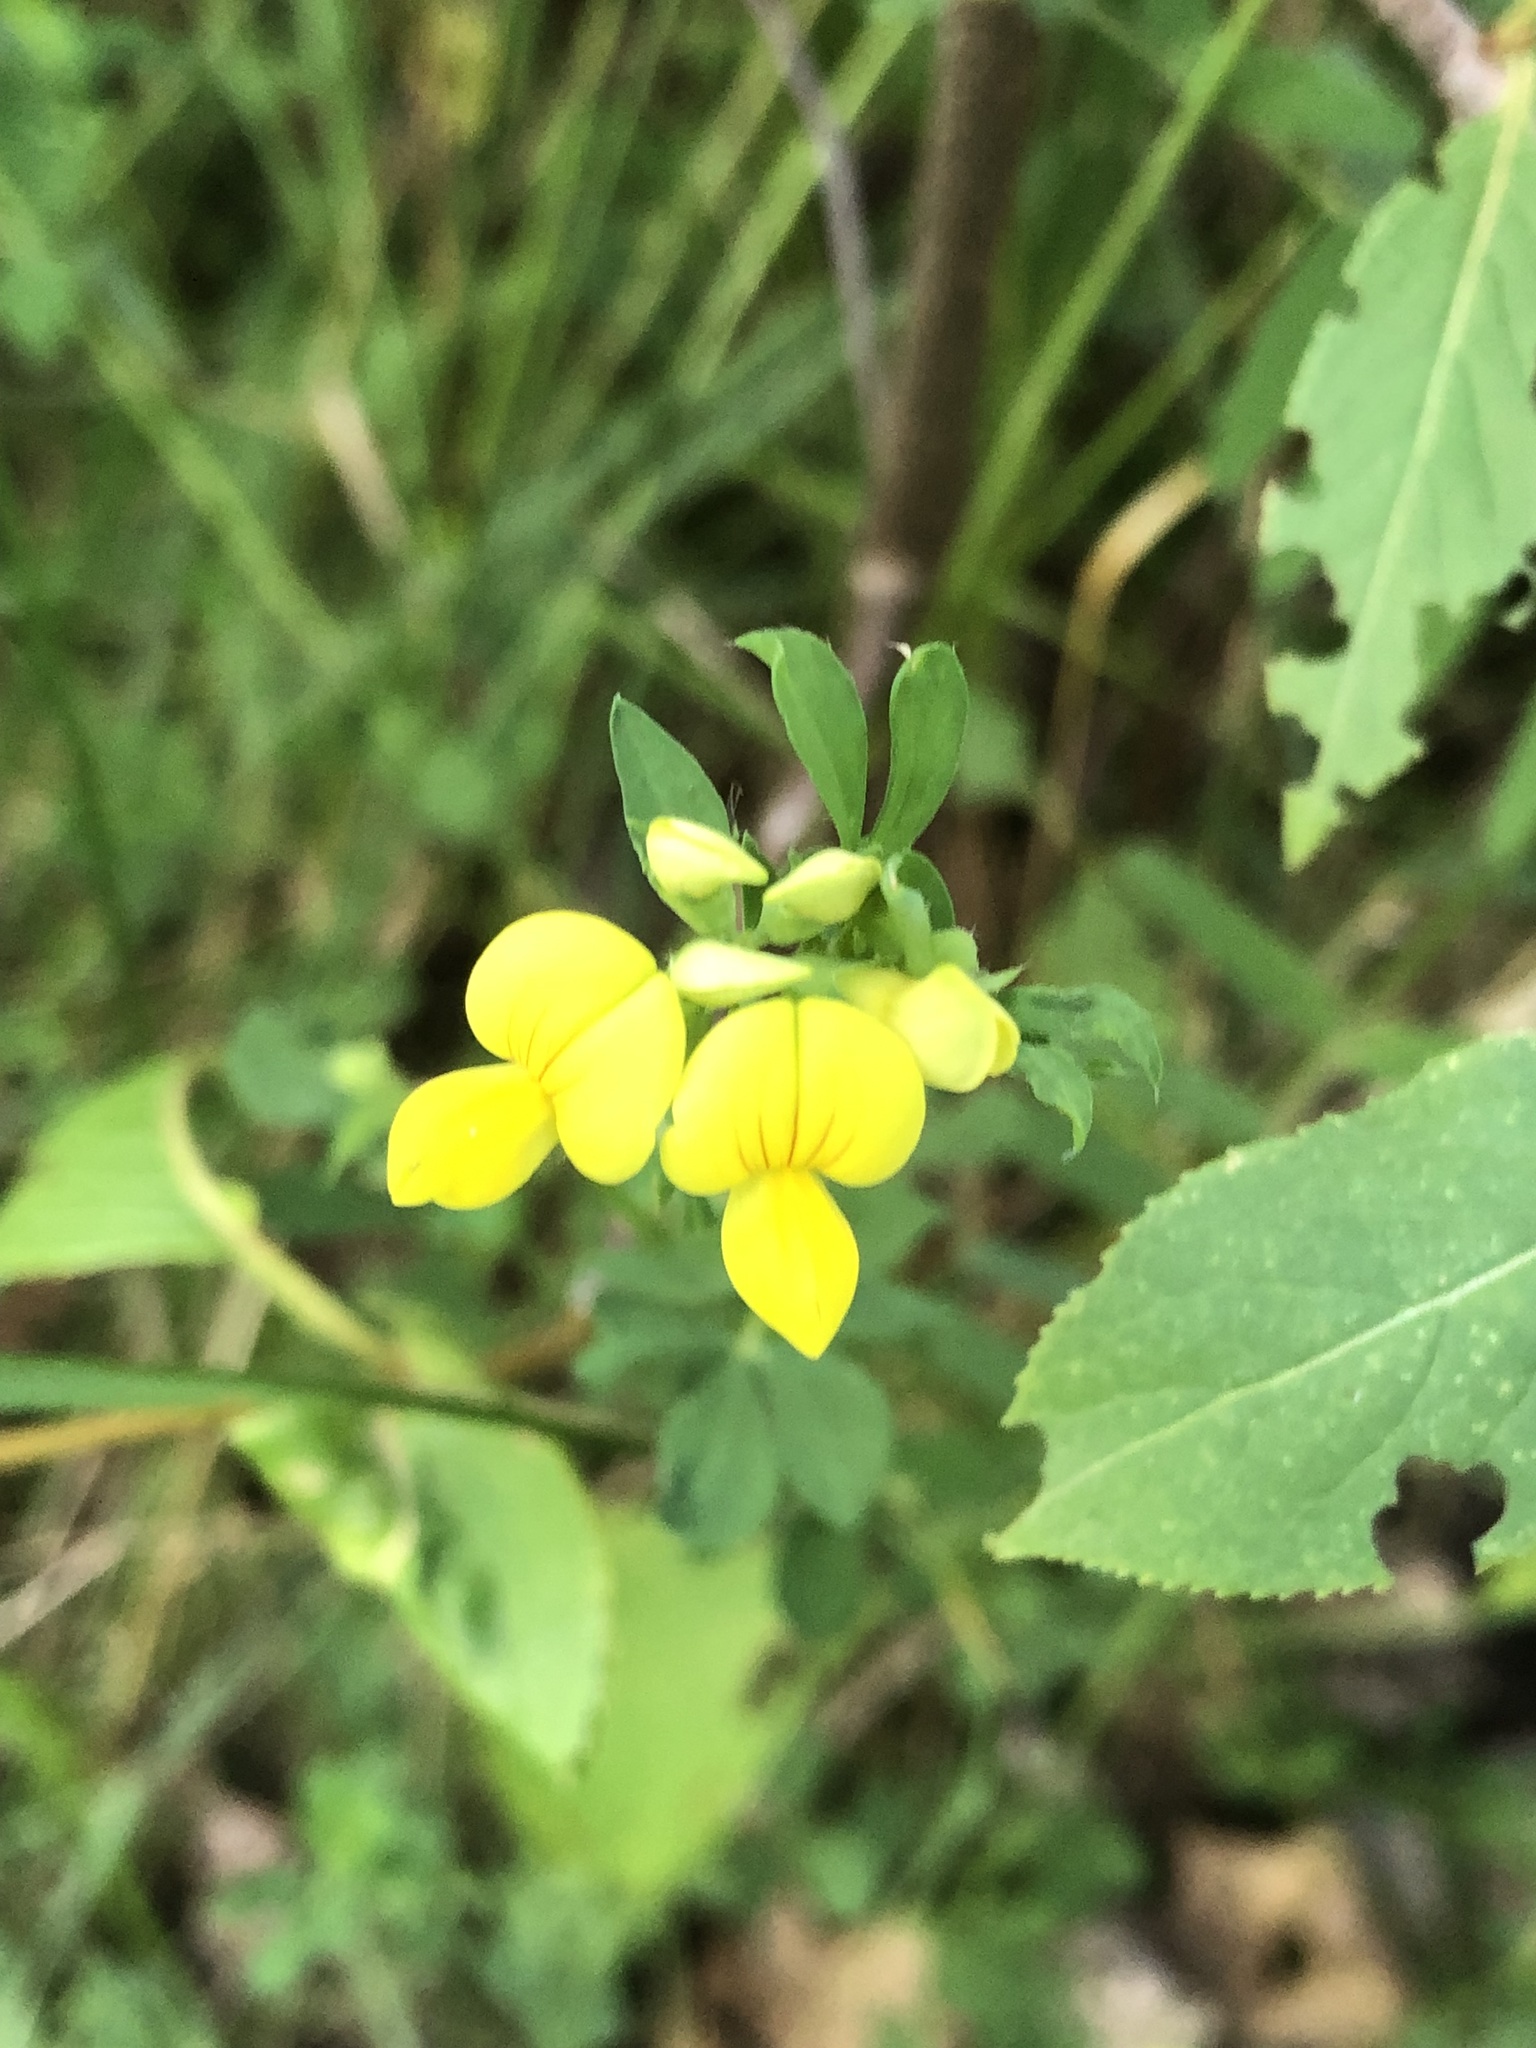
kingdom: Plantae
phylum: Tracheophyta
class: Magnoliopsida
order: Fabales
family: Fabaceae
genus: Lotus
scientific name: Lotus corniculatus
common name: Common bird's-foot-trefoil
